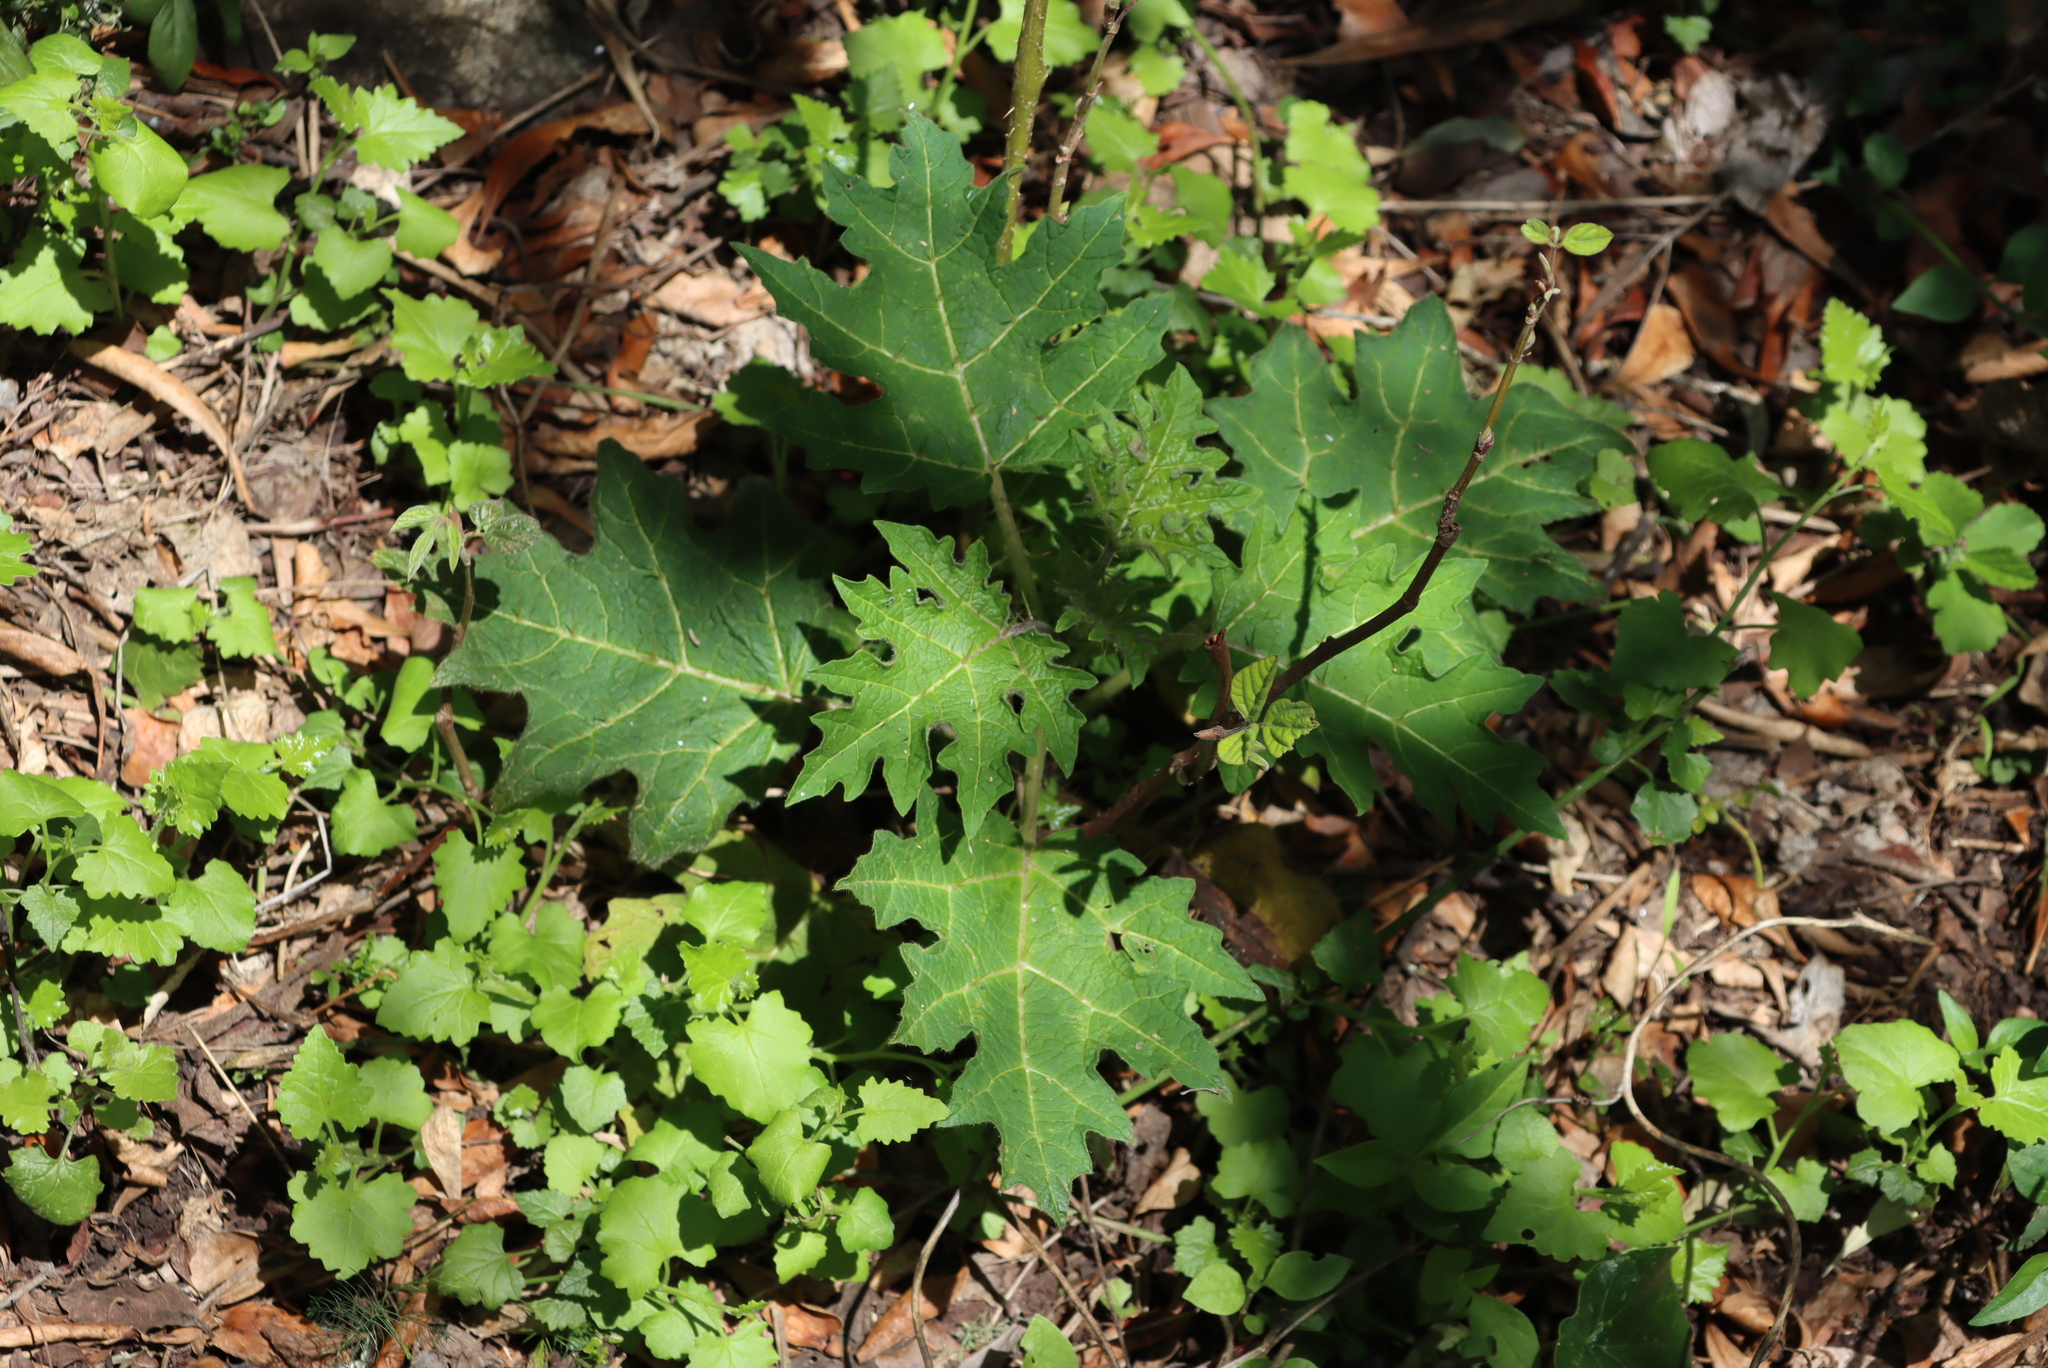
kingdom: Plantae
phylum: Tracheophyta
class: Magnoliopsida
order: Solanales
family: Solanaceae
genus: Solanum
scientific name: Solanum aculeatissimum
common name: Dutch eggplant
